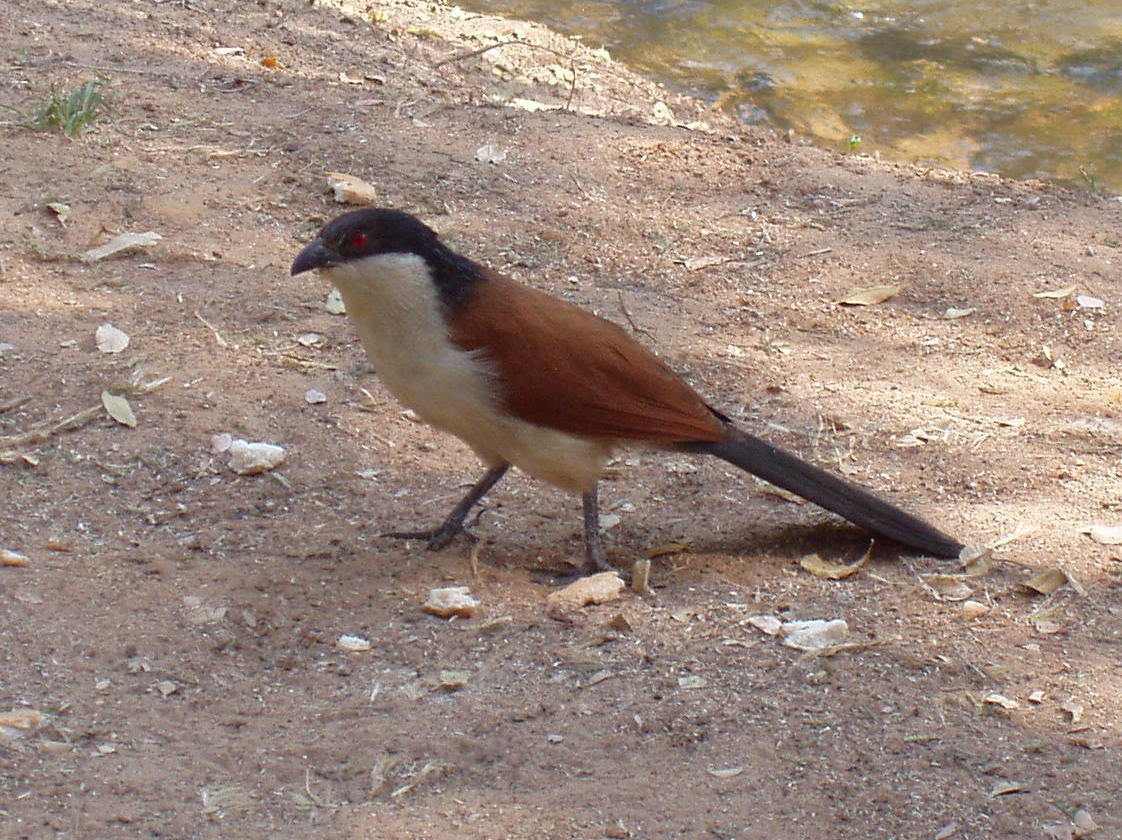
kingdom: Animalia
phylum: Chordata
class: Aves
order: Cuculiformes
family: Cuculidae
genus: Centropus
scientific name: Centropus senegalensis
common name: Senegal coucal
